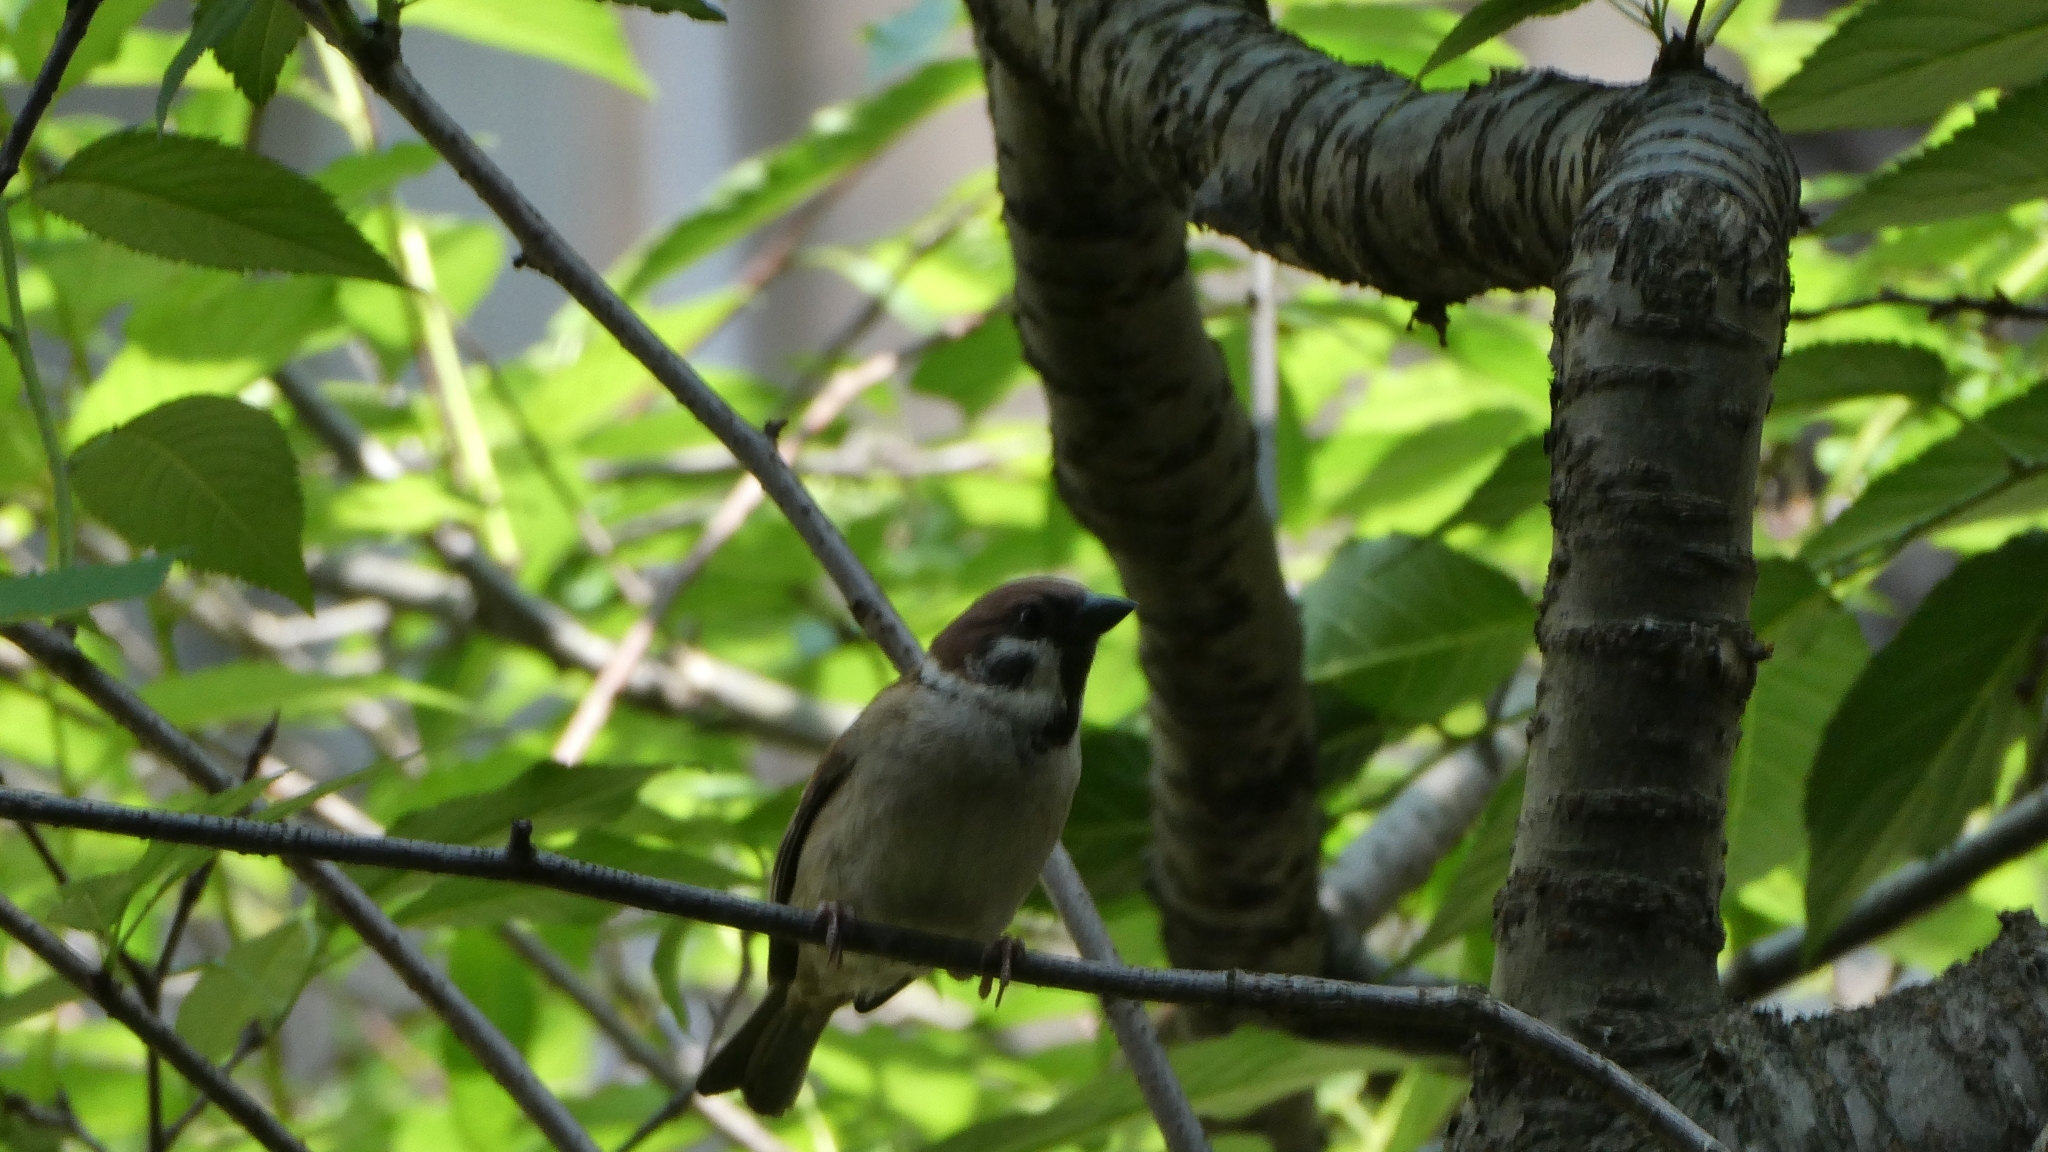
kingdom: Animalia
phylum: Chordata
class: Aves
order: Passeriformes
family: Passeridae
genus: Passer
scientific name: Passer montanus
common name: Eurasian tree sparrow
